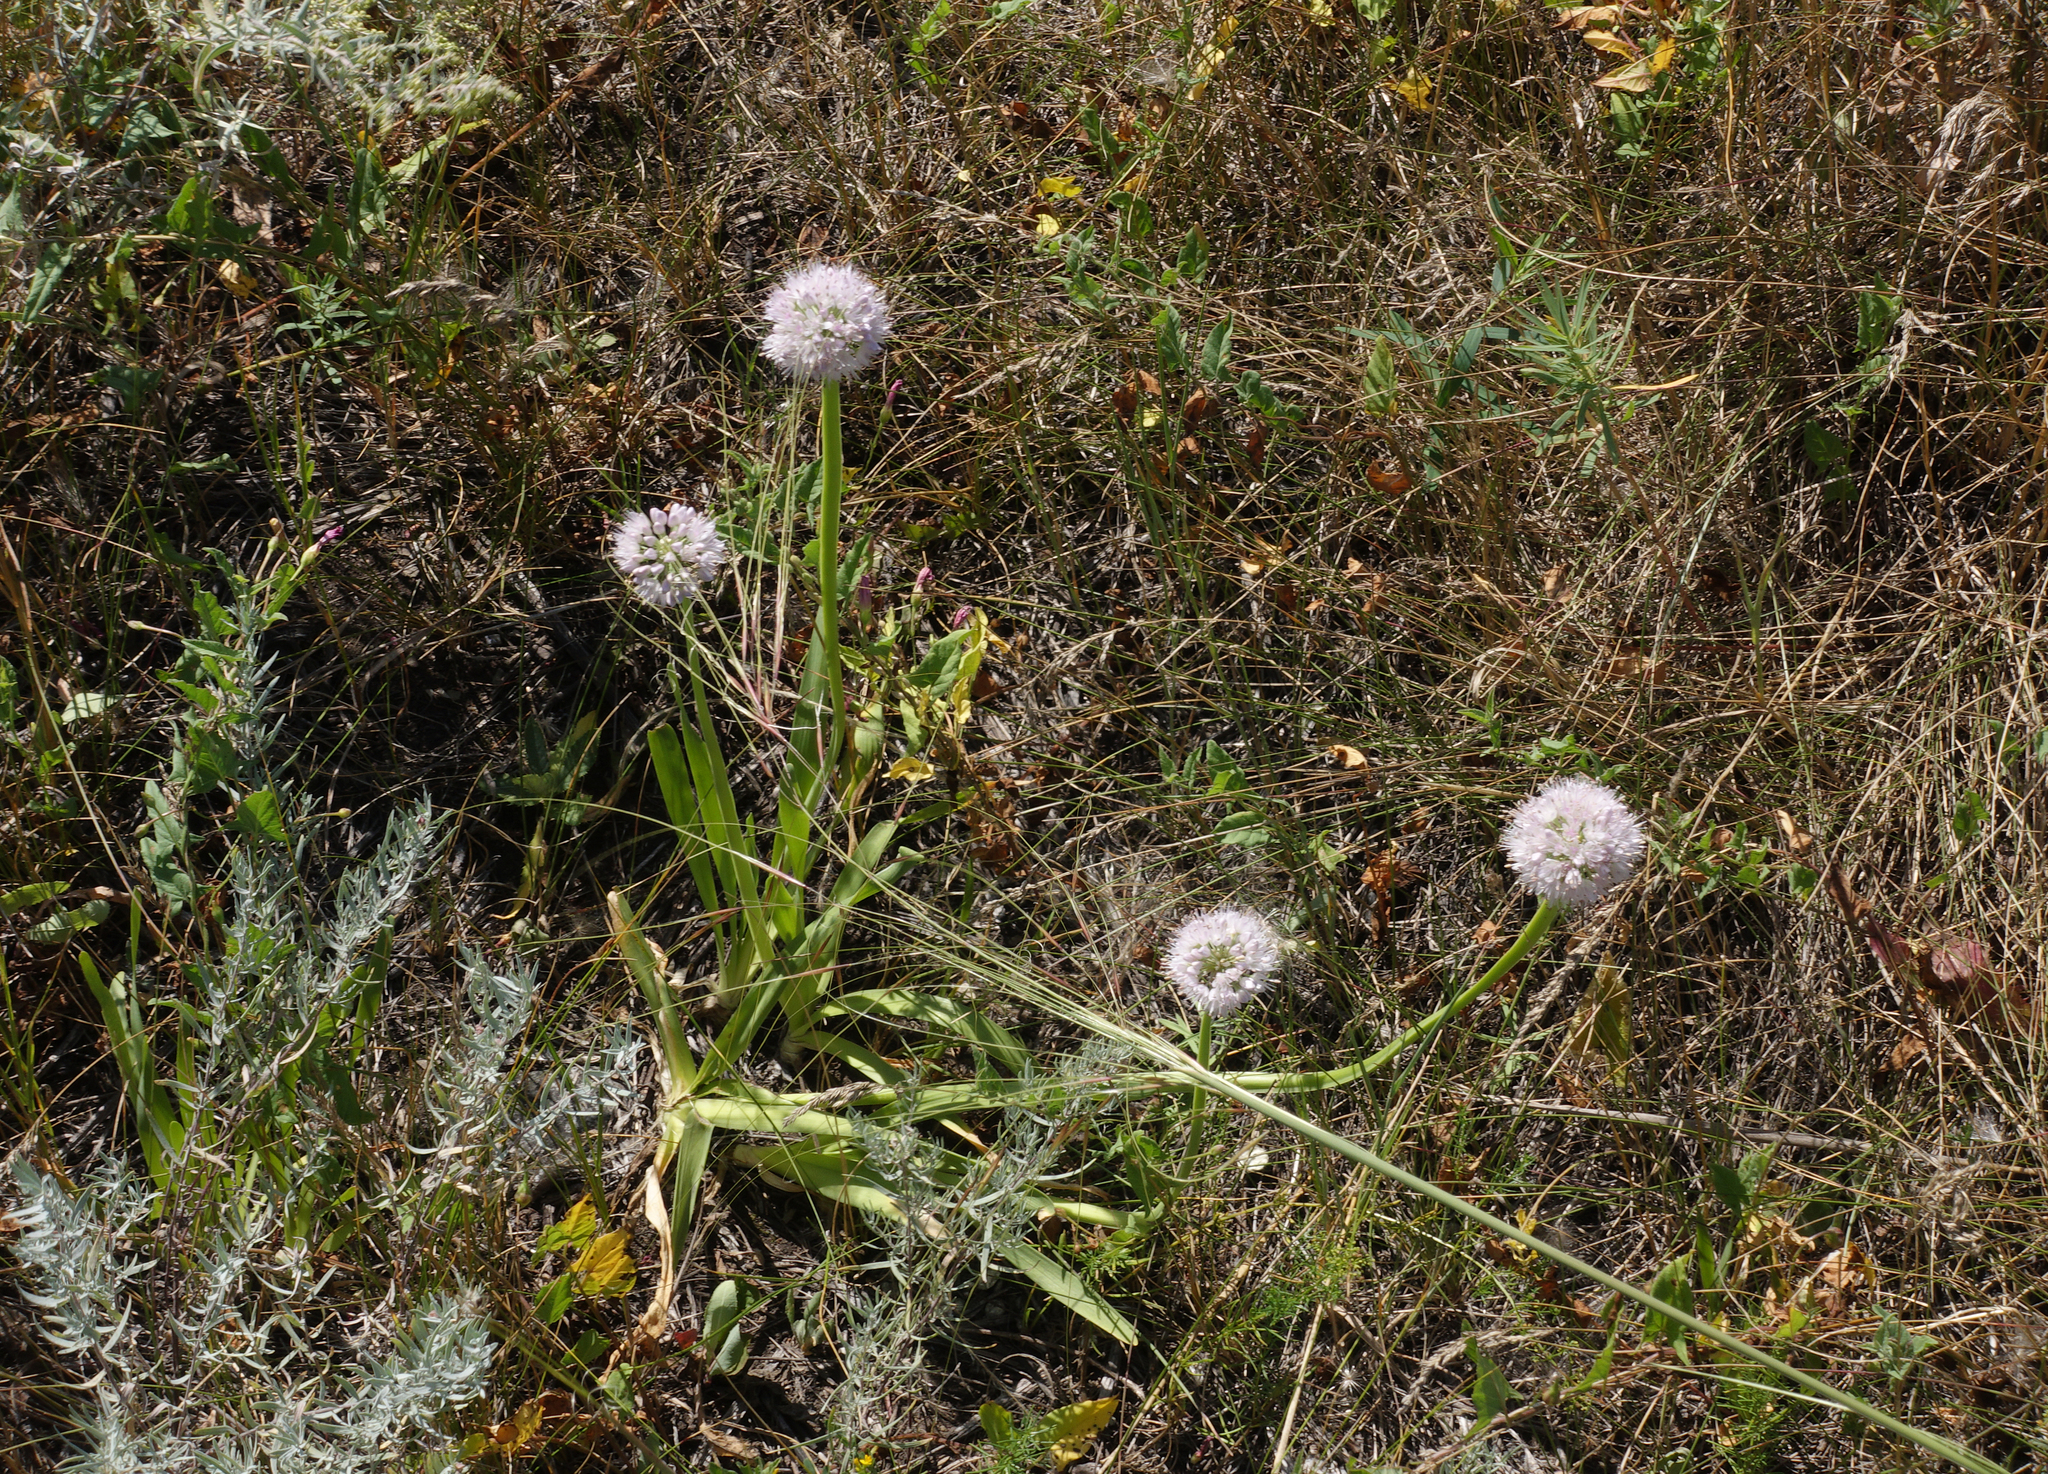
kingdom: Plantae
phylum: Tracheophyta
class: Liliopsida
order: Asparagales
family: Amaryllidaceae
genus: Allium
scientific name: Allium nutans
